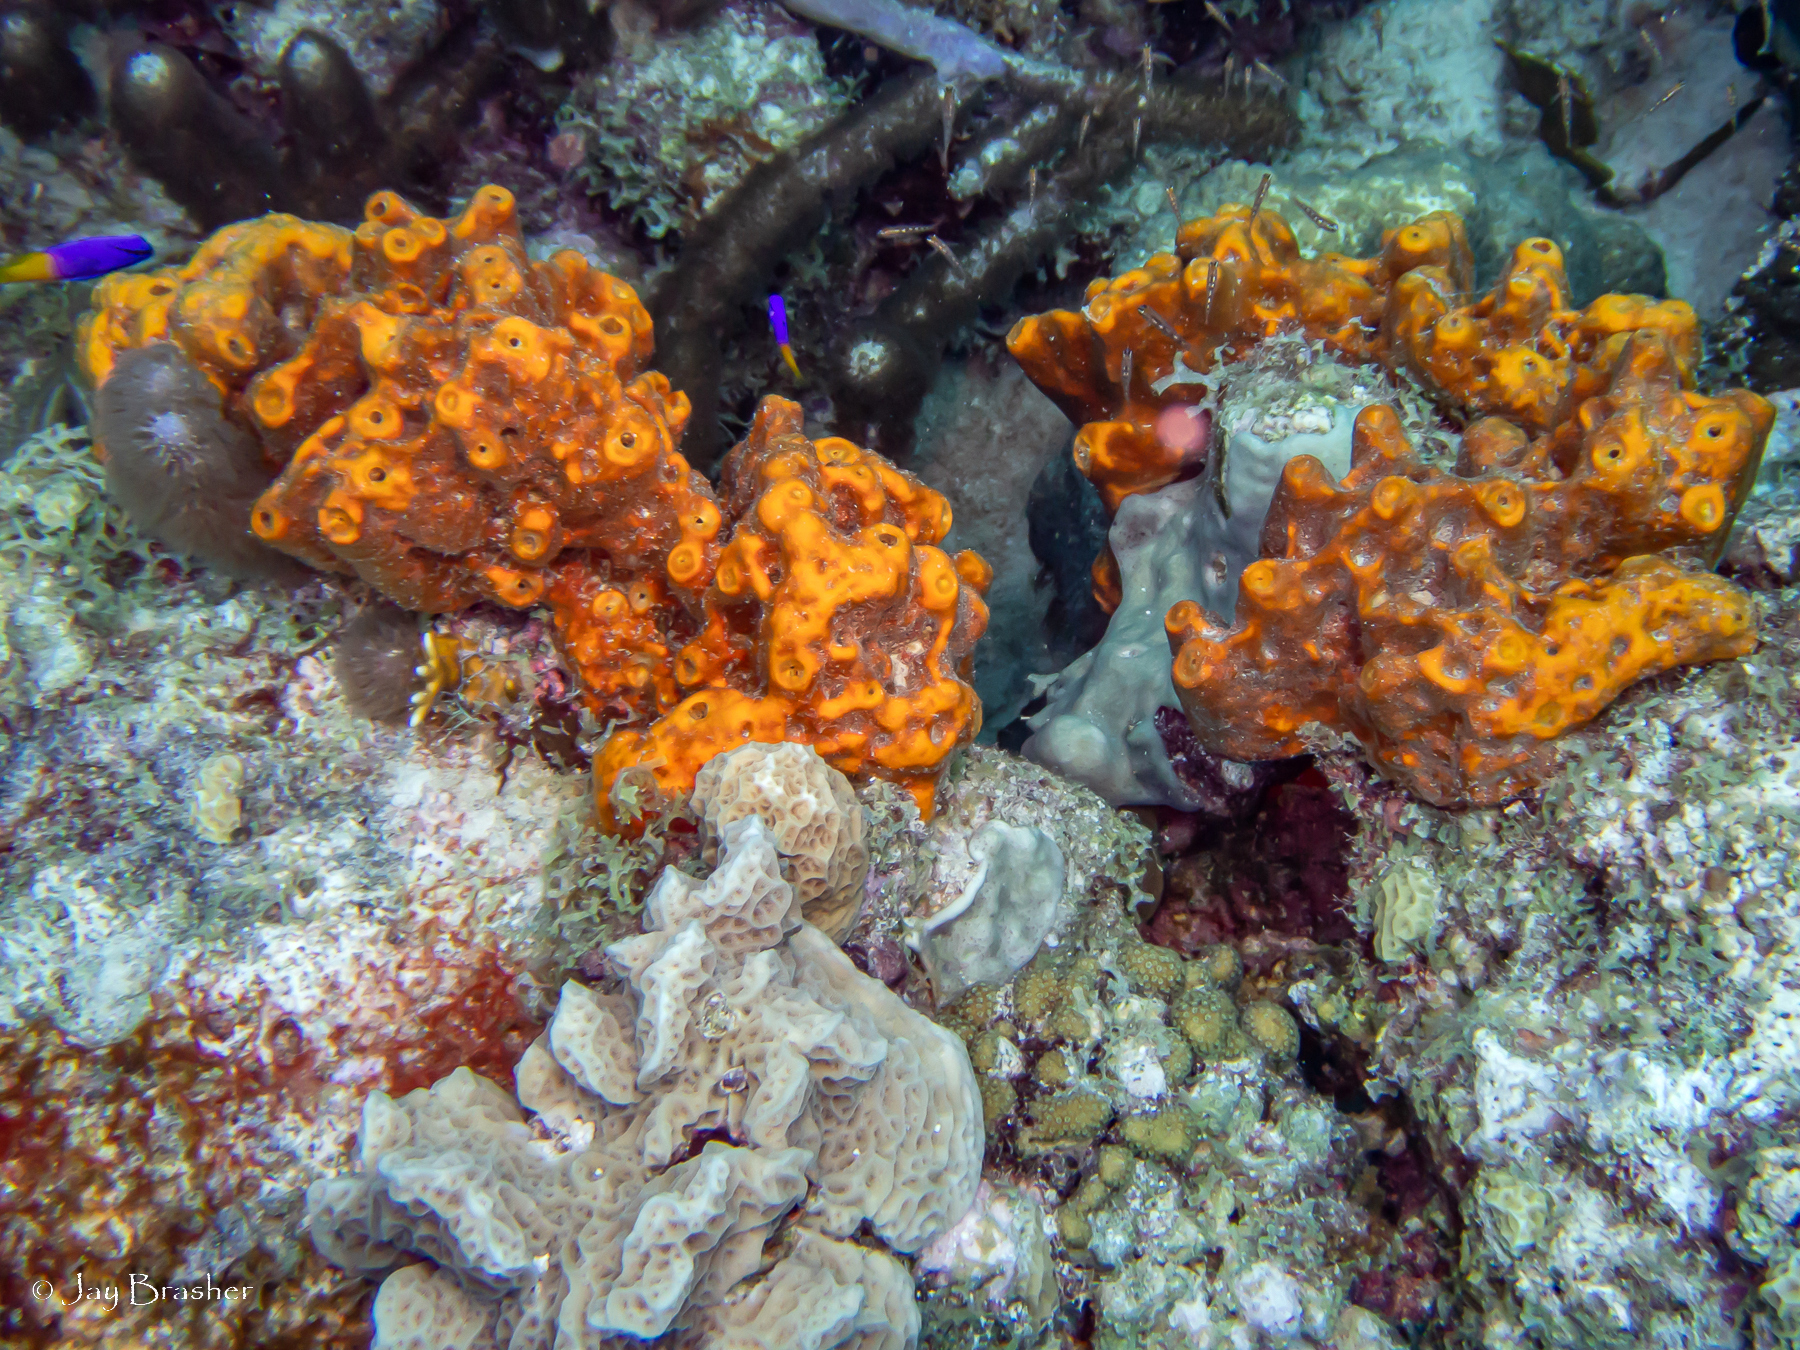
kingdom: Animalia
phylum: Cnidaria
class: Anthozoa
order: Scleralcyonacea
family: Briareidae
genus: Briareum
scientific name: Briareum asbestinum
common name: Corky sea finger
